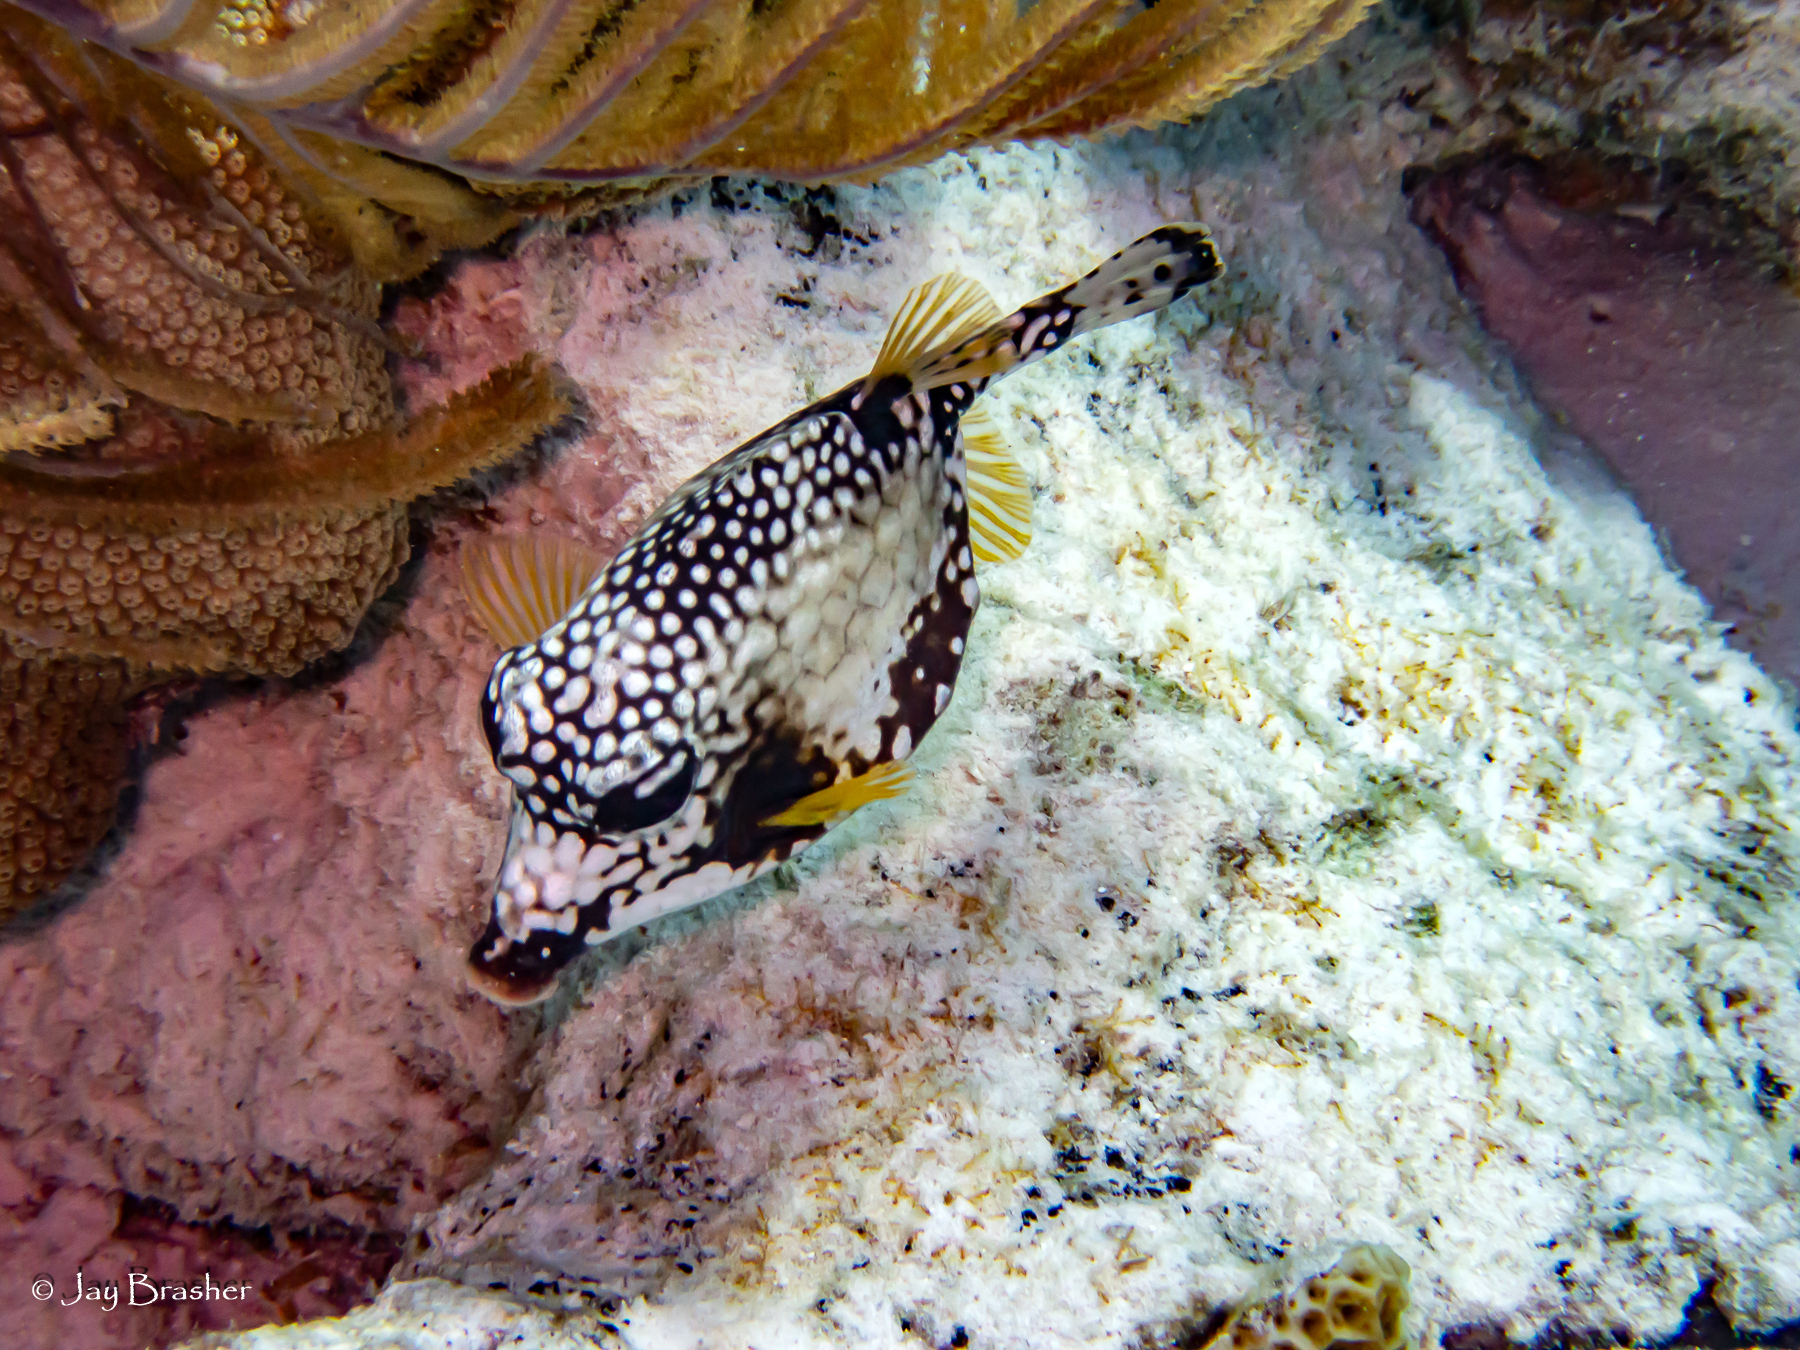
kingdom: Animalia
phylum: Chordata
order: Tetraodontiformes
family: Ostraciidae
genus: Lactophrys
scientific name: Lactophrys triqueter
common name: Smooth trunkfish
